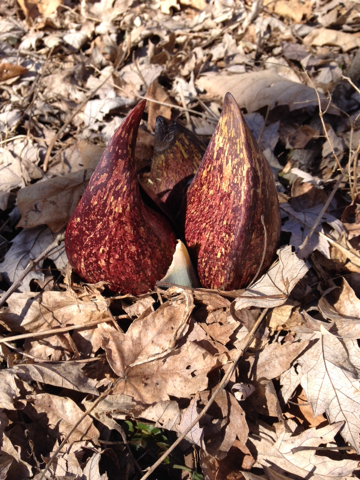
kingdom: Plantae
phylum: Tracheophyta
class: Liliopsida
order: Alismatales
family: Araceae
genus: Symplocarpus
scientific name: Symplocarpus foetidus
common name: Eastern skunk cabbage
